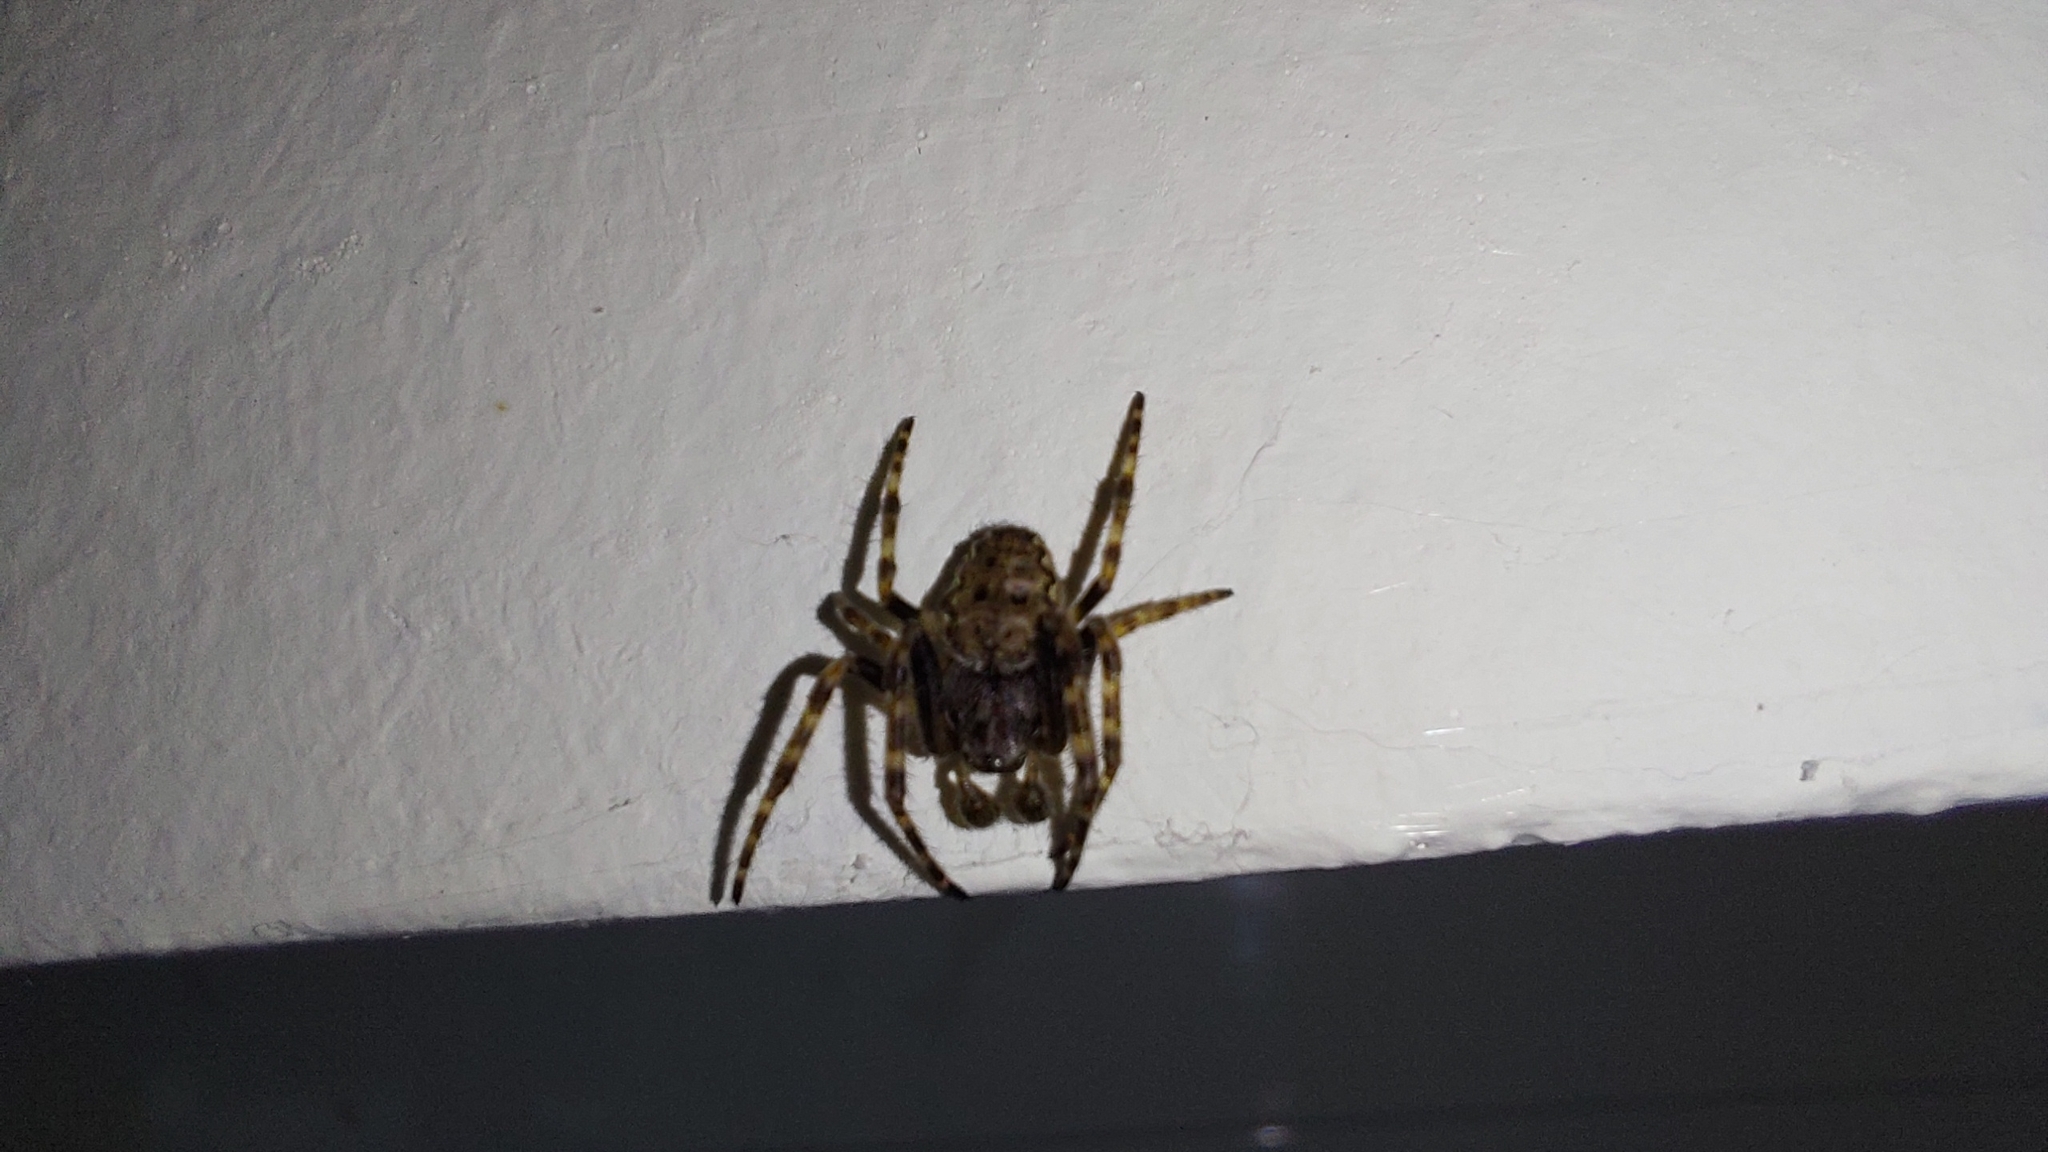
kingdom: Animalia
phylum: Arthropoda
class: Arachnida
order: Araneae
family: Araneidae
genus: Nuctenea
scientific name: Nuctenea umbratica
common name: Toad spider
